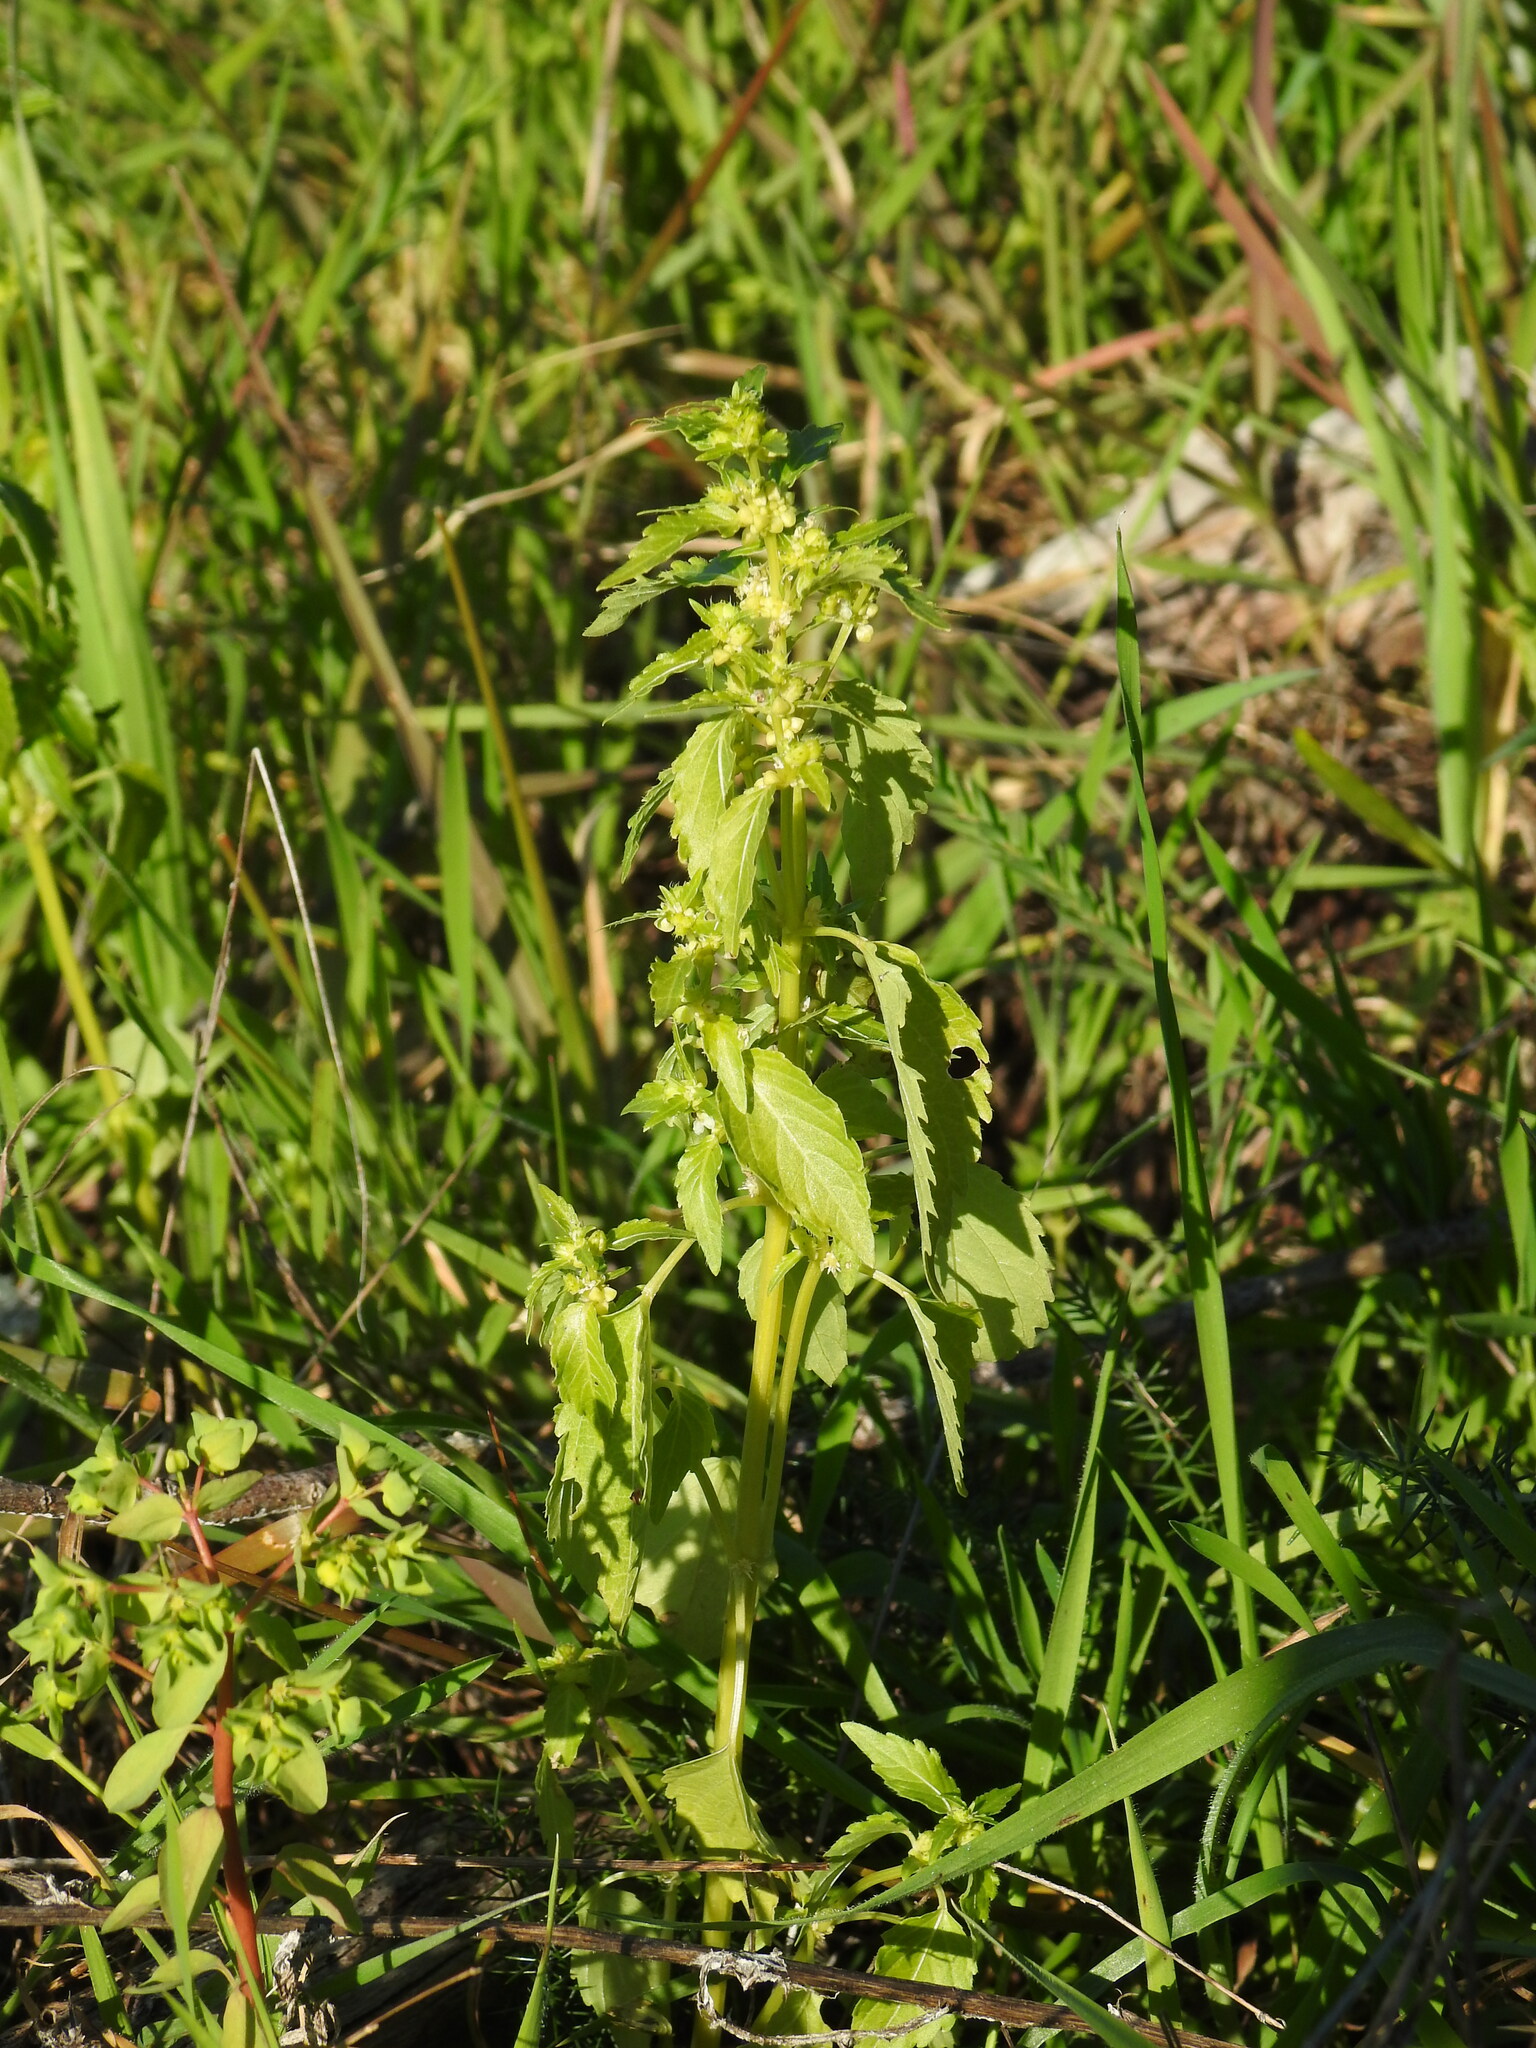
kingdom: Plantae
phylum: Tracheophyta
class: Magnoliopsida
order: Malpighiales
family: Euphorbiaceae
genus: Mercurialis
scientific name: Mercurialis annua
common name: Annual mercury
